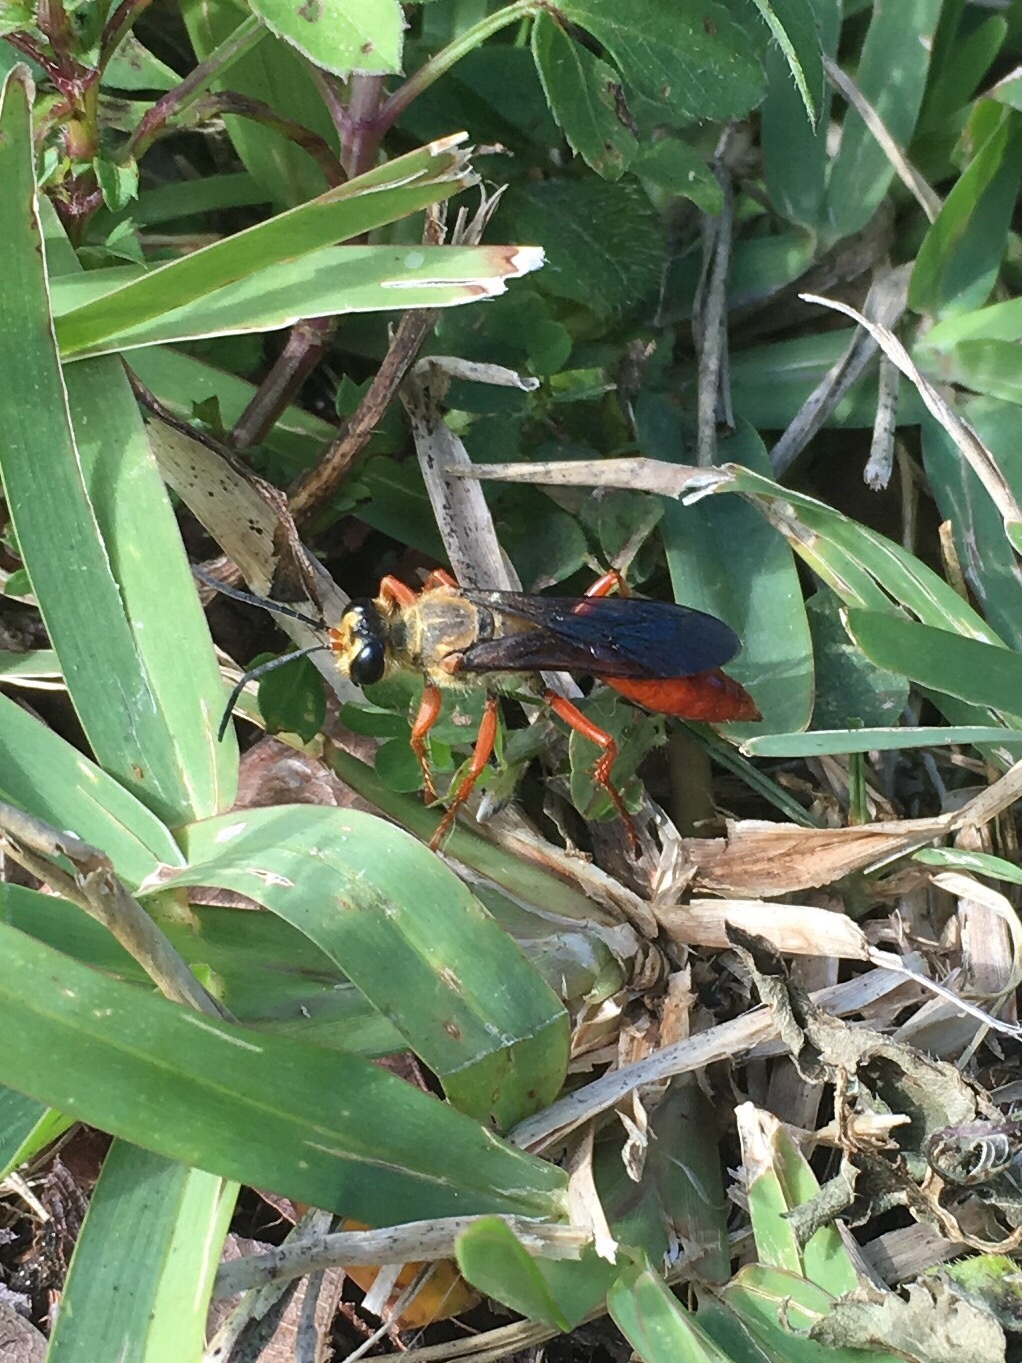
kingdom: Animalia
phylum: Arthropoda
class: Insecta
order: Hymenoptera
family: Sphecidae
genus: Sphex
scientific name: Sphex jamaicensis
